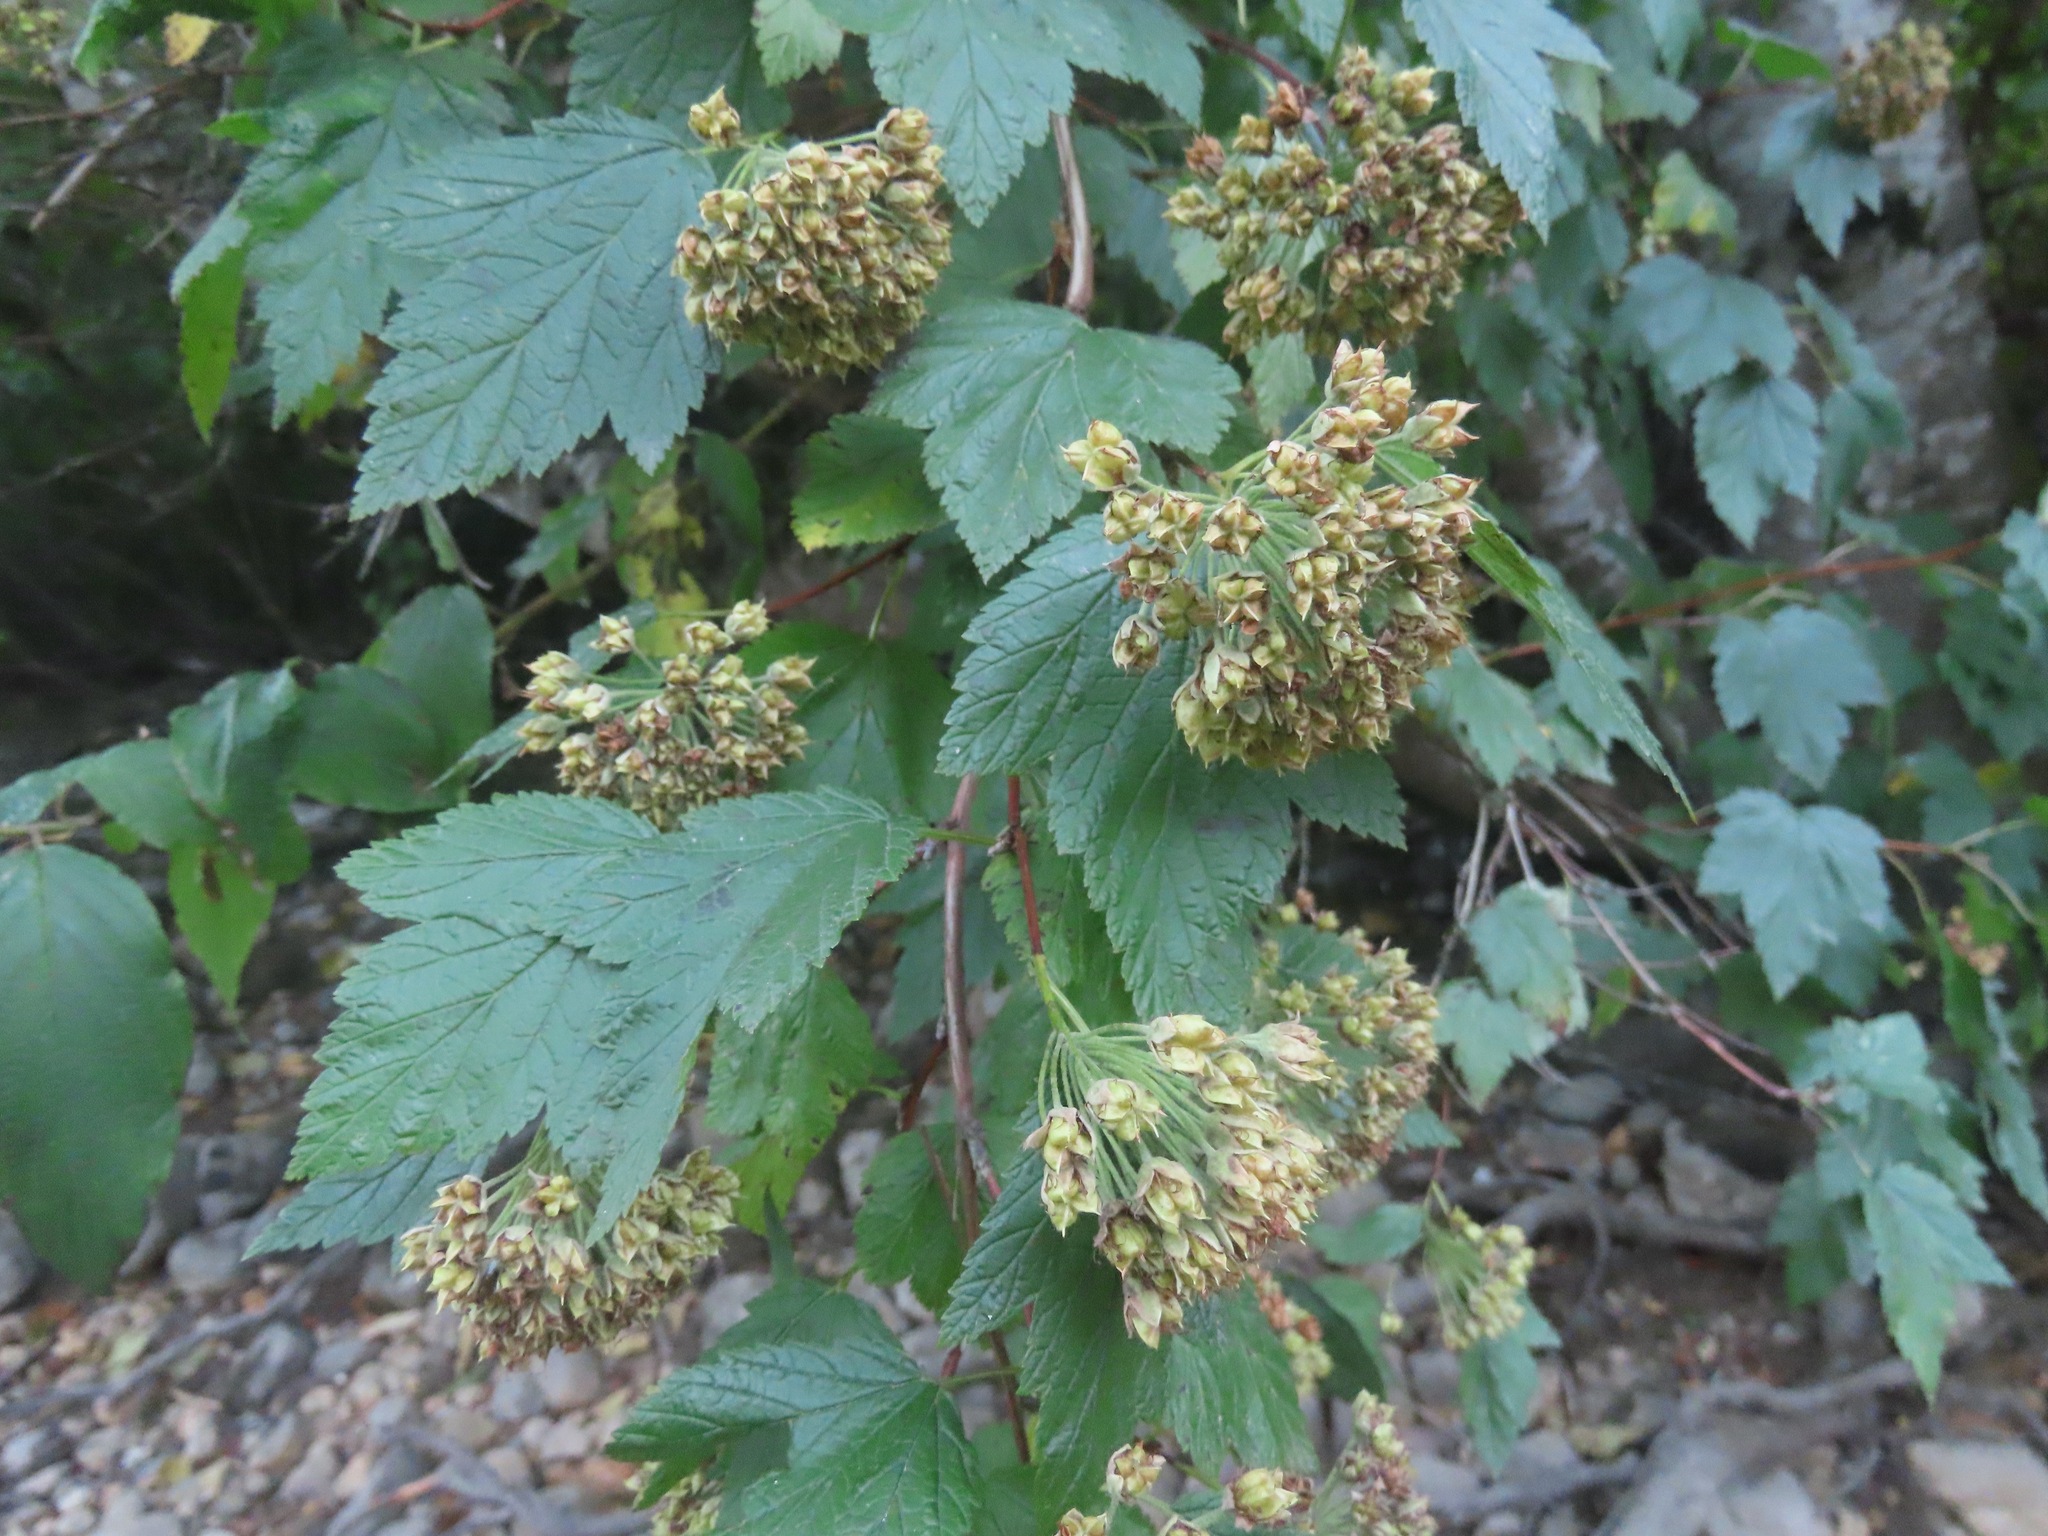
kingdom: Plantae
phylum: Tracheophyta
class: Magnoliopsida
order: Rosales
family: Rosaceae
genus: Physocarpus
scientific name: Physocarpus capitatus
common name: Pacific ninebark
